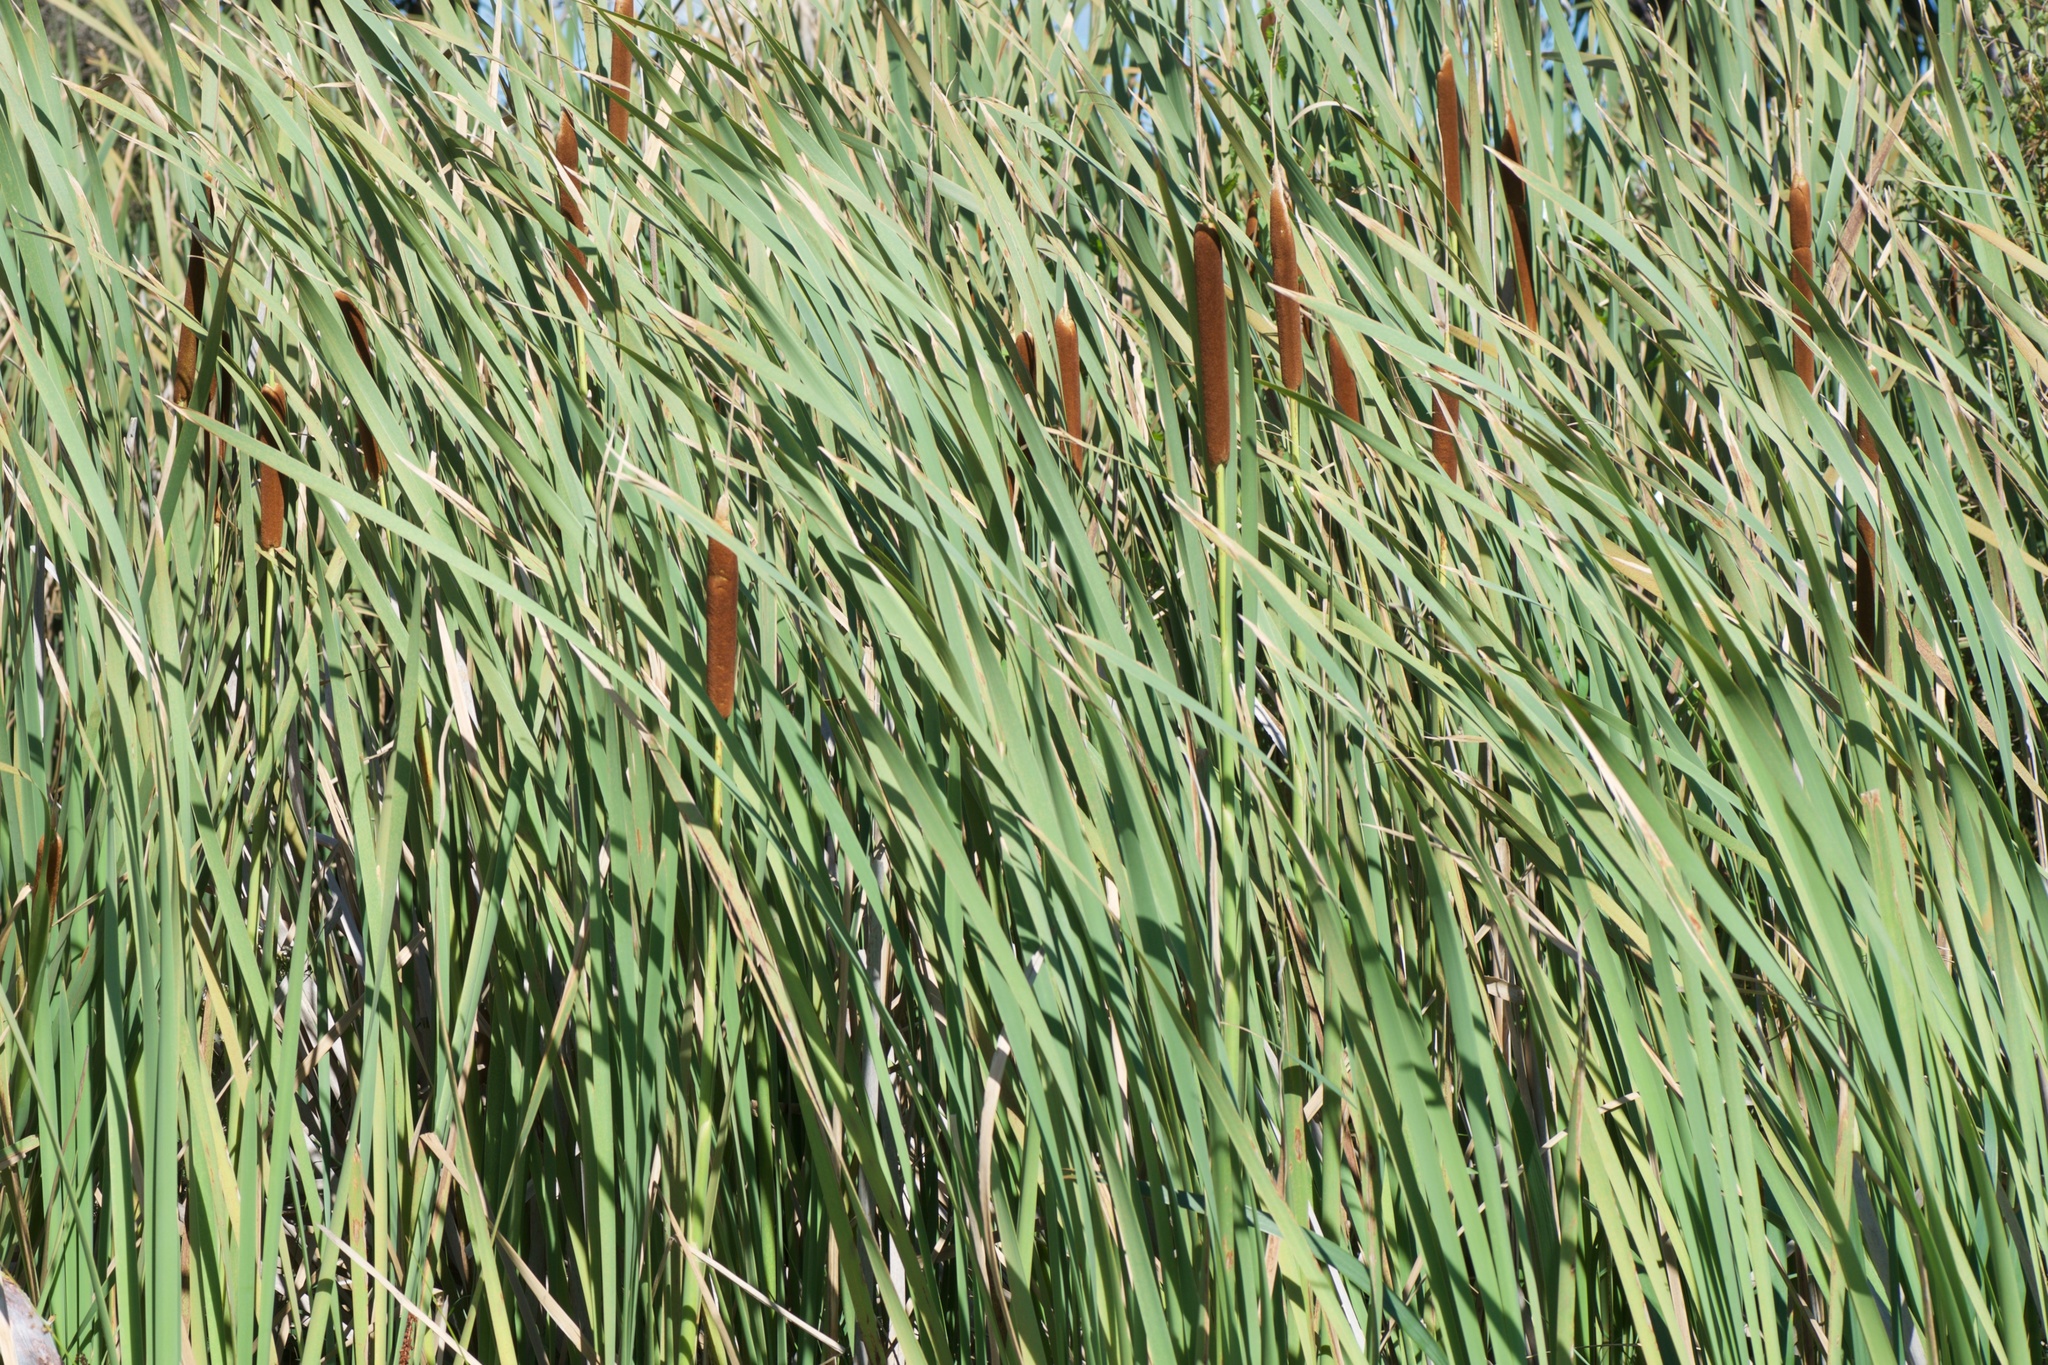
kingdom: Plantae
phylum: Tracheophyta
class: Liliopsida
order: Poales
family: Typhaceae
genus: Typha
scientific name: Typha orientalis
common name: Bullrush
